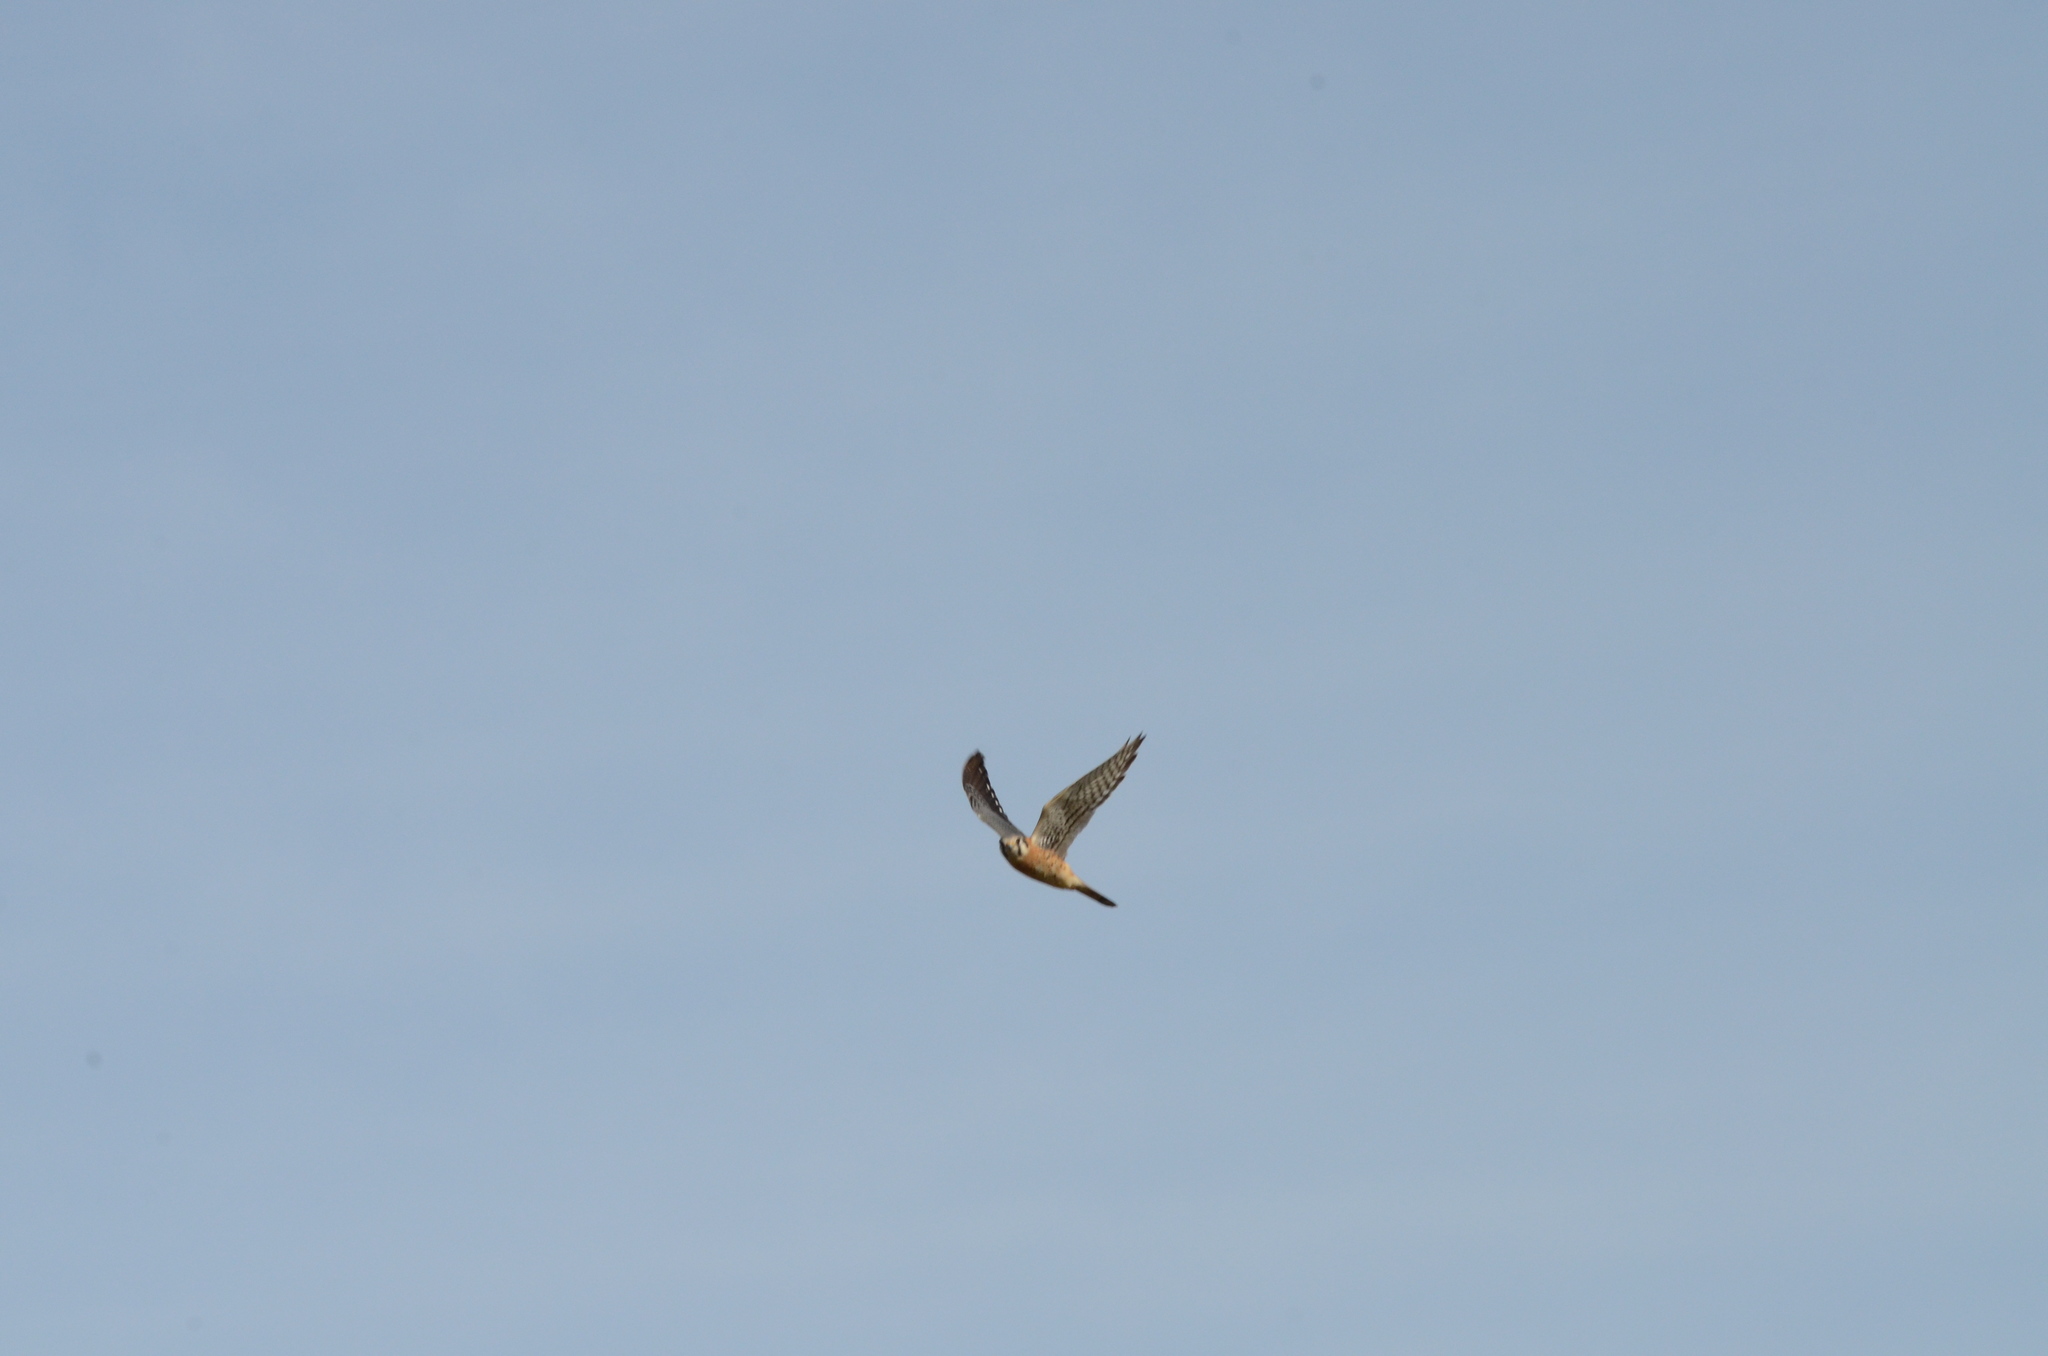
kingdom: Animalia
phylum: Chordata
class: Aves
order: Falconiformes
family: Falconidae
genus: Falco
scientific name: Falco sparverius
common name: American kestrel
